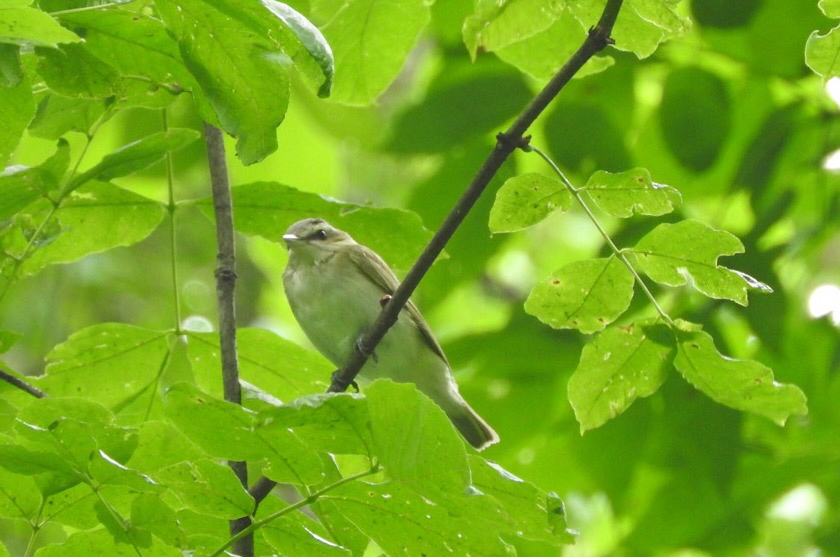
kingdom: Animalia
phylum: Chordata
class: Aves
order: Passeriformes
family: Vireonidae
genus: Vireo
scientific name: Vireo olivaceus
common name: Red-eyed vireo
